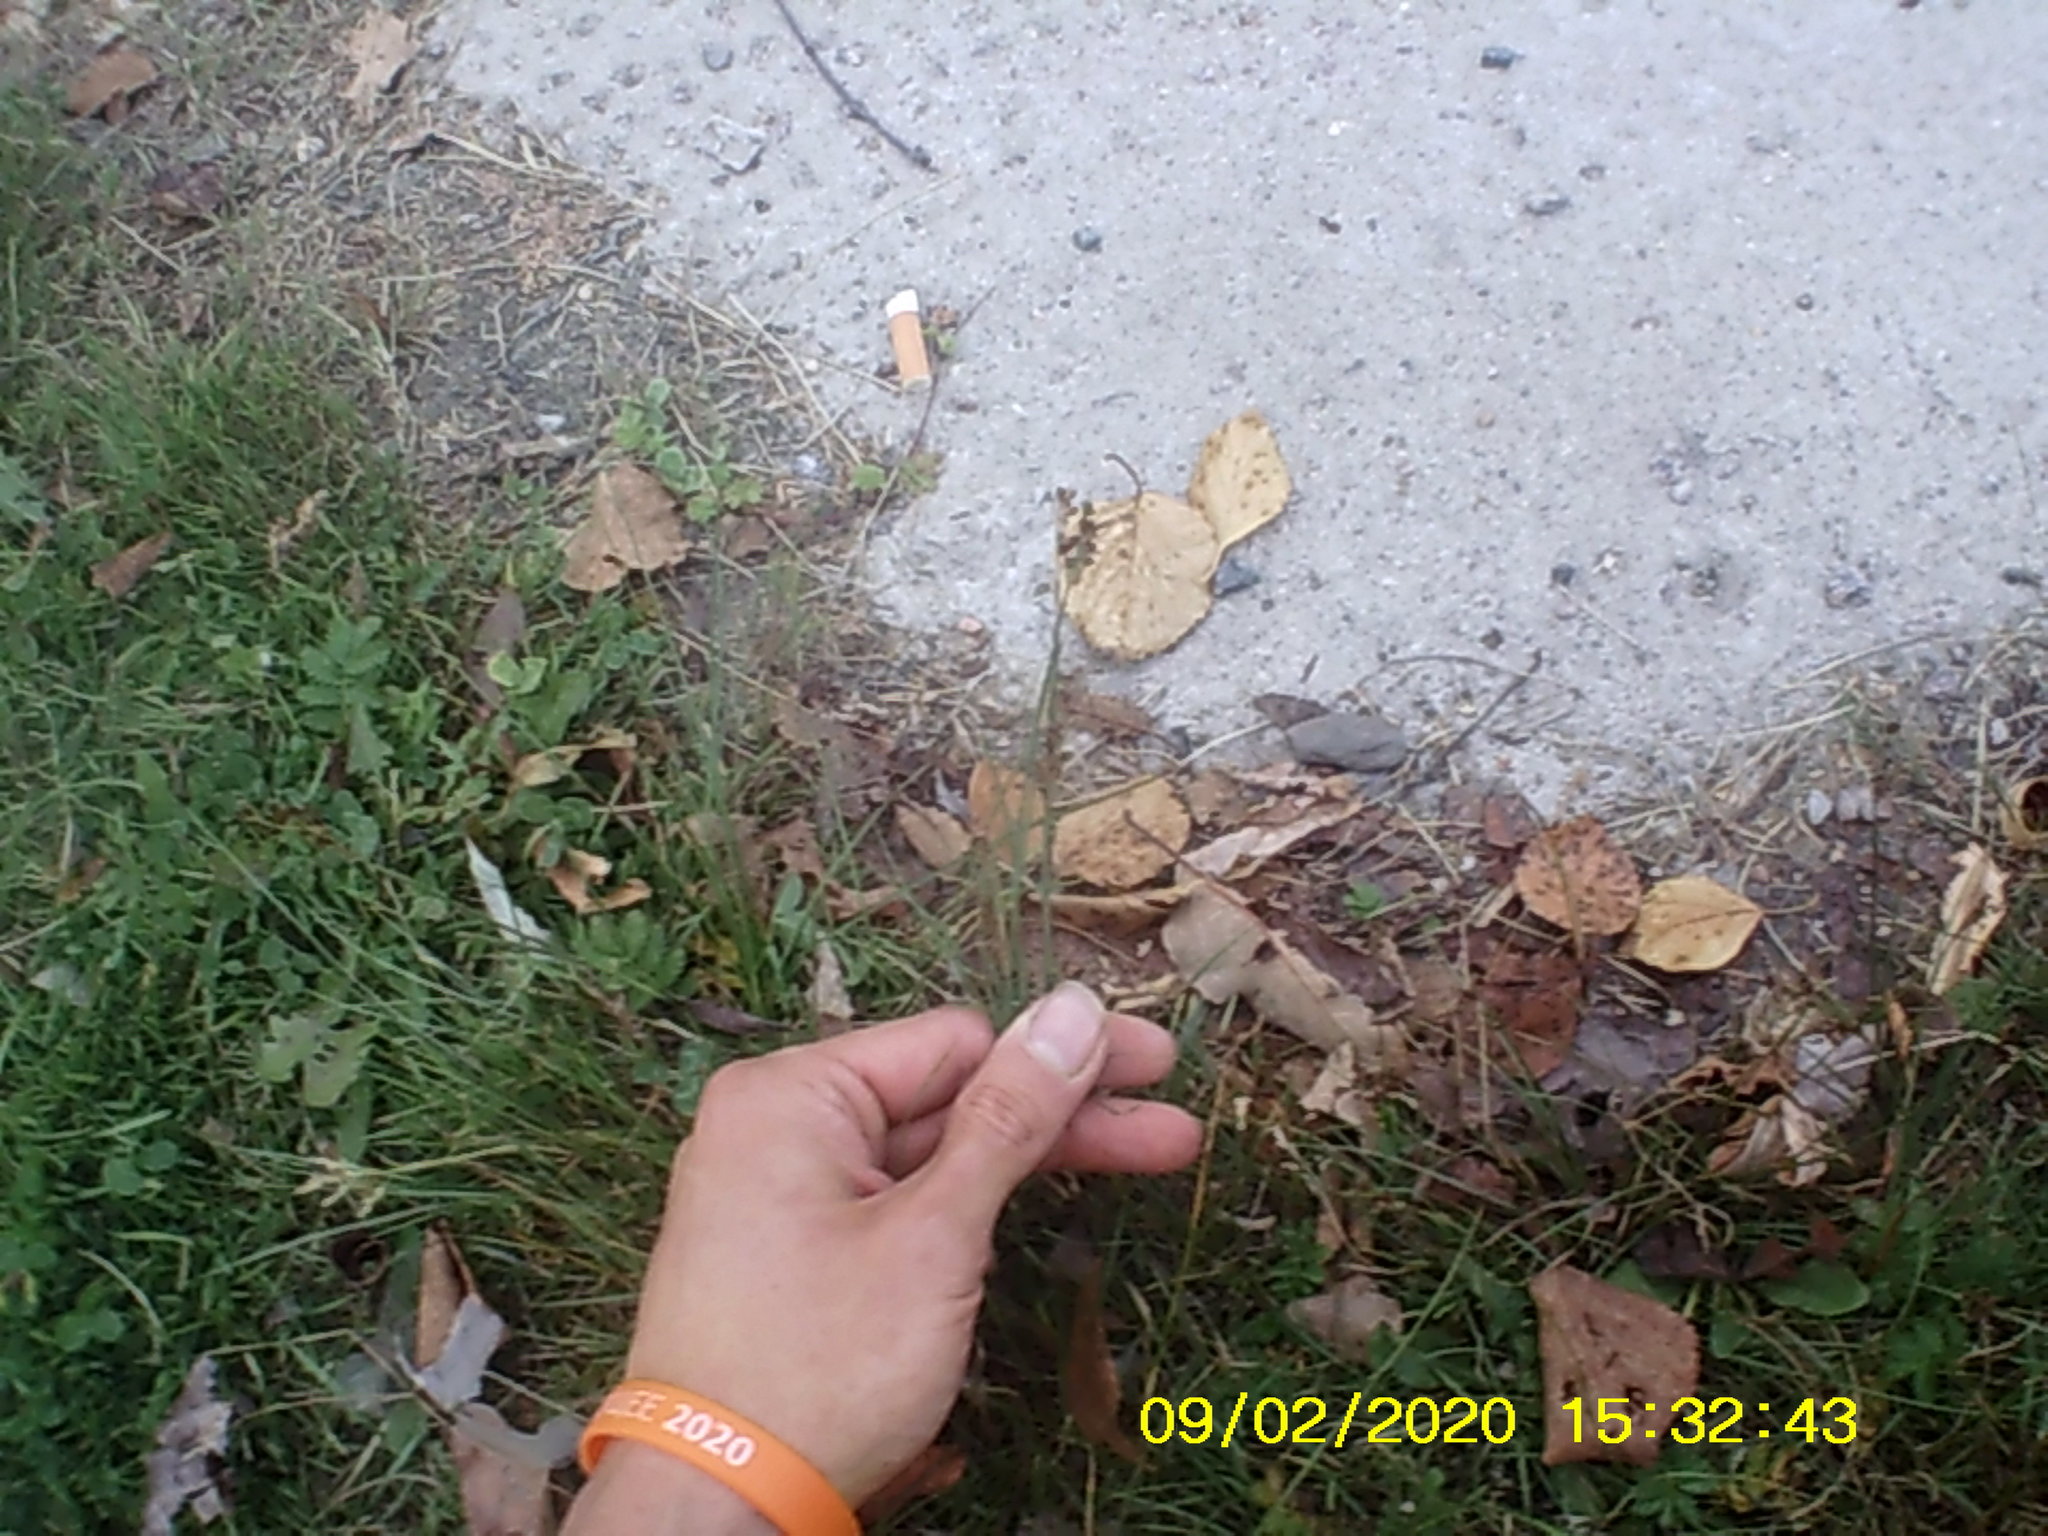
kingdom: Plantae
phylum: Tracheophyta
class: Liliopsida
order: Poales
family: Juncaceae
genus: Juncus
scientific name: Juncus compressus
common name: Round-fruited rush
